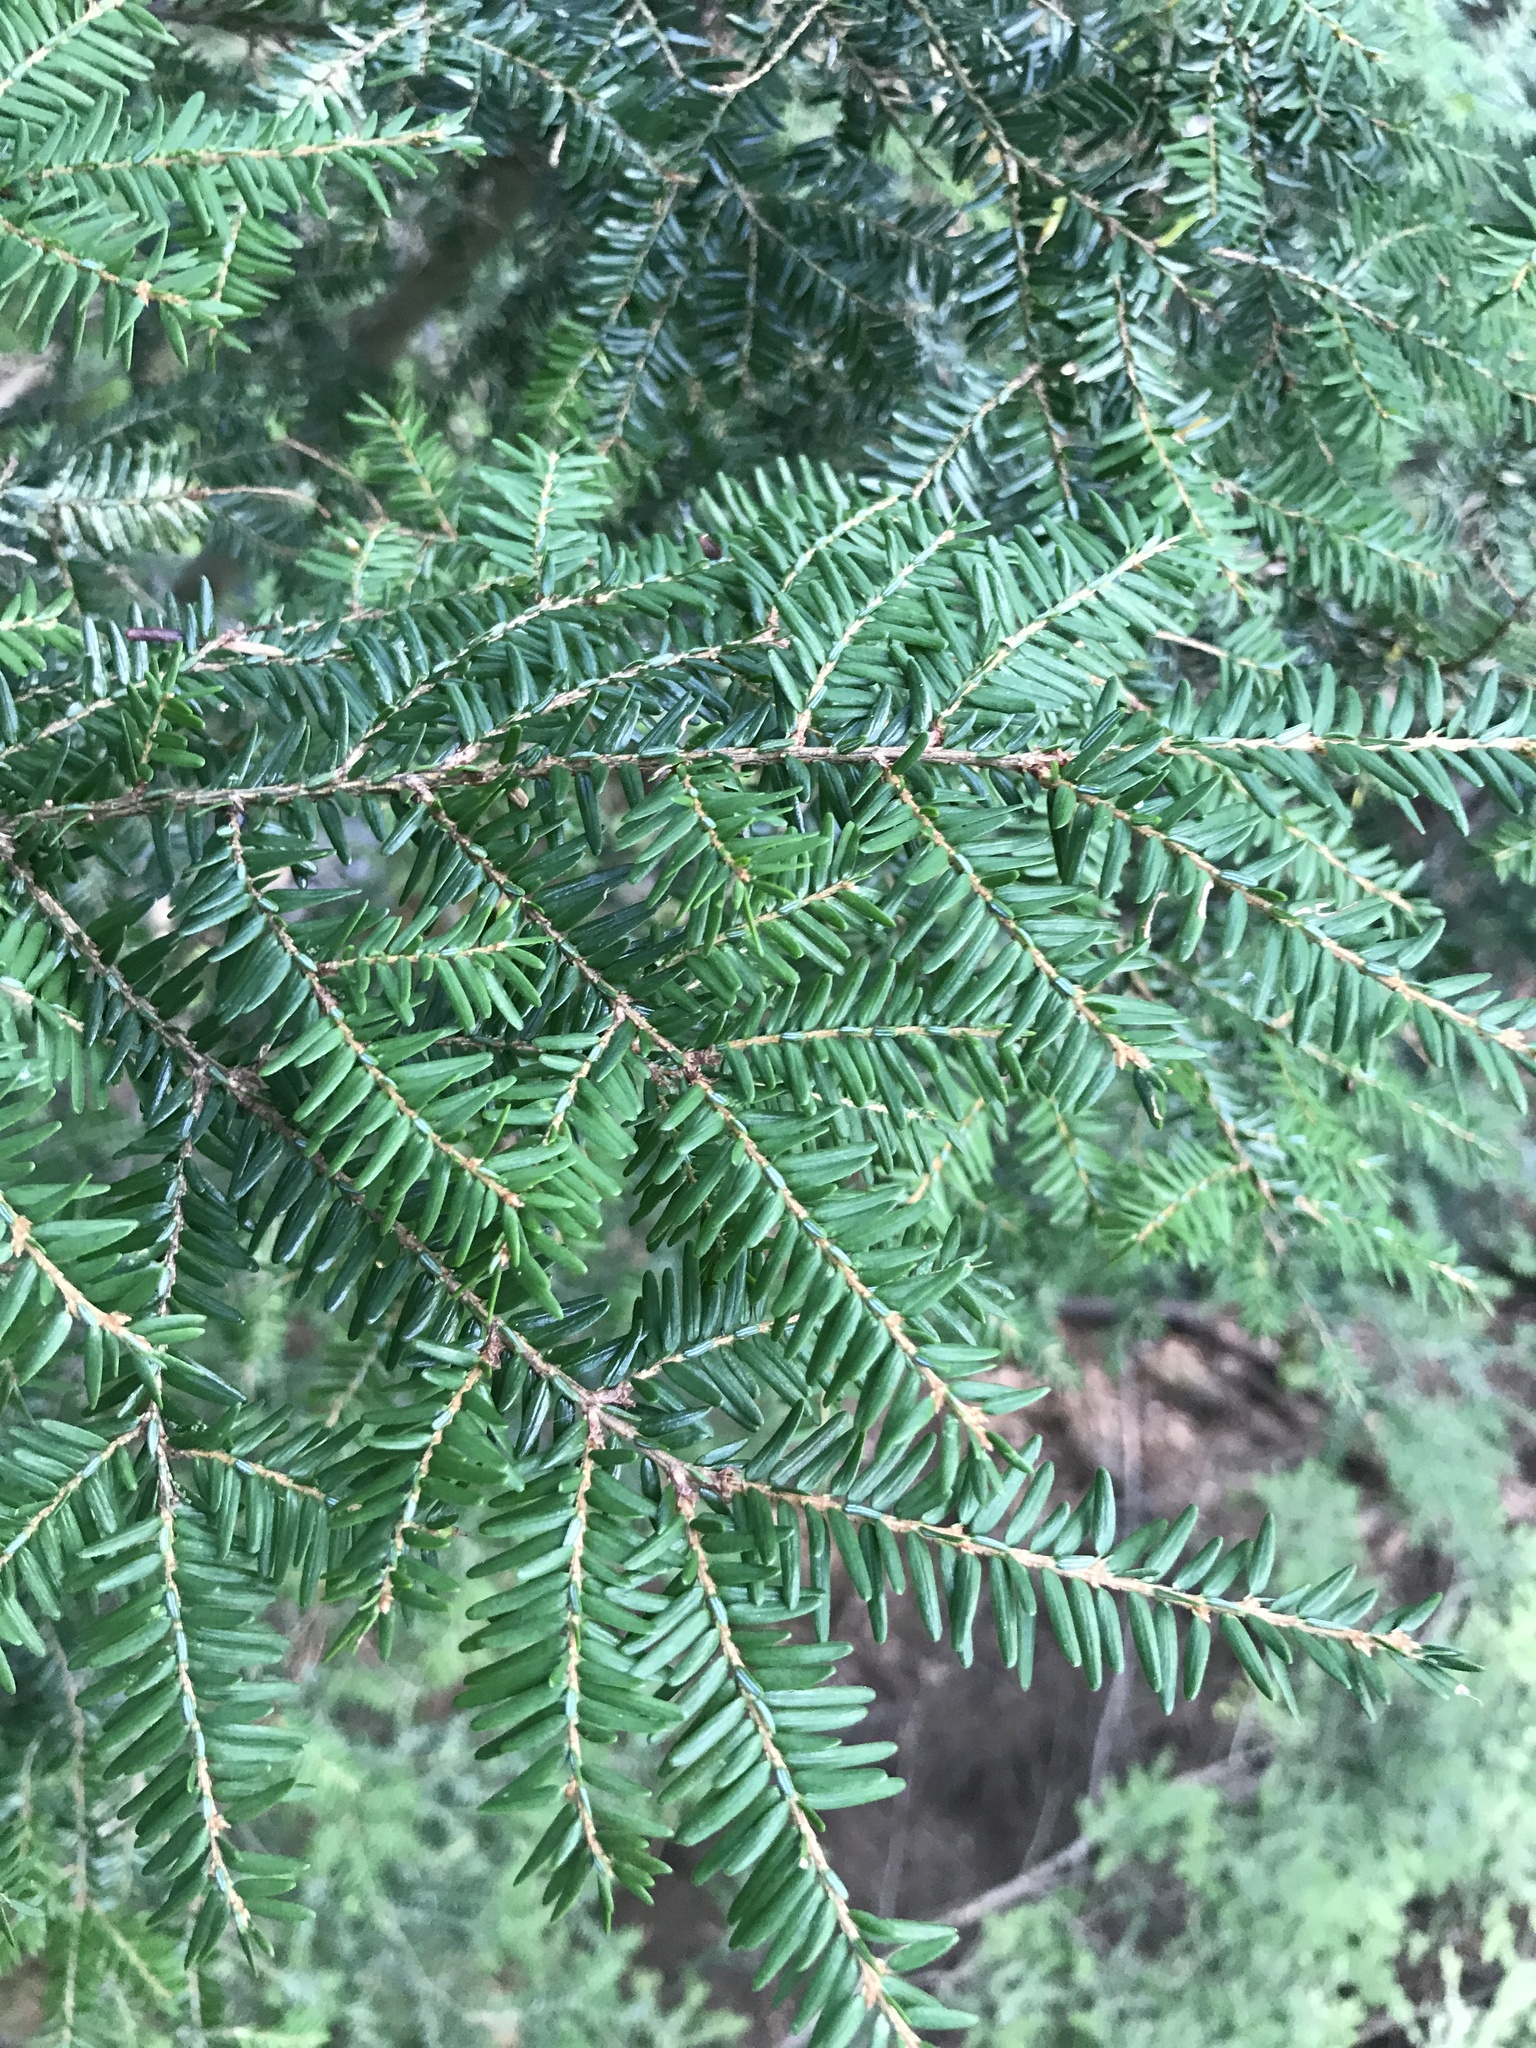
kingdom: Plantae
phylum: Tracheophyta
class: Pinopsida
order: Pinales
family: Pinaceae
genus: Tsuga
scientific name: Tsuga canadensis
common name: Eastern hemlock
